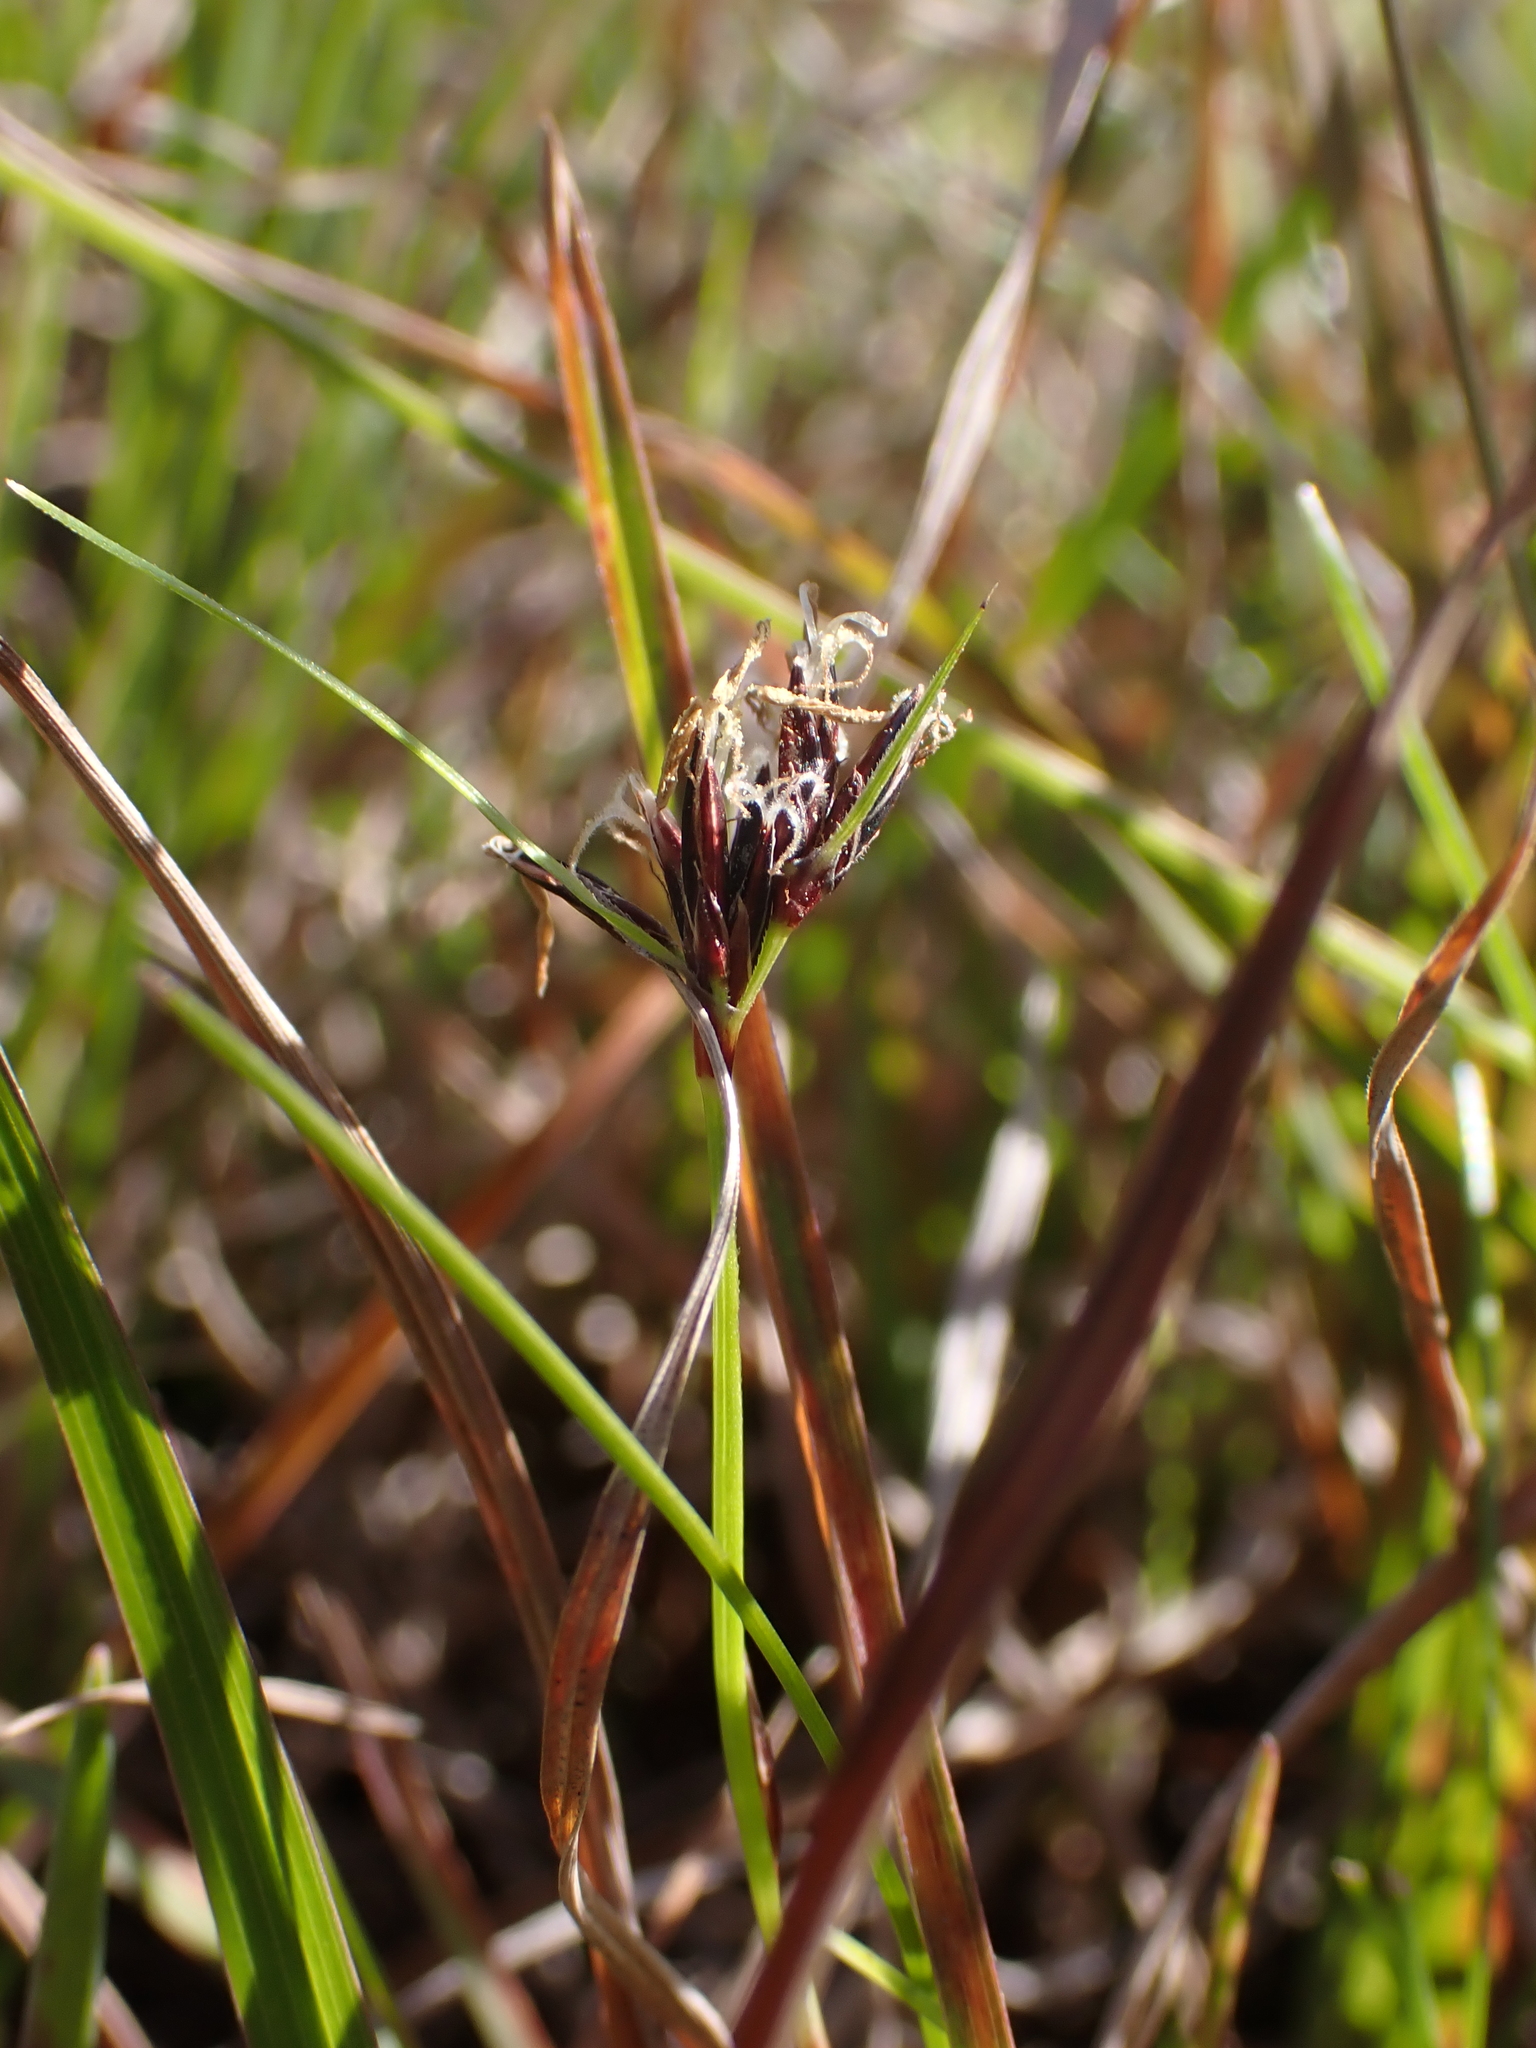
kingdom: Plantae
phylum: Tracheophyta
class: Liliopsida
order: Poales
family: Cyperaceae
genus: Schoenus
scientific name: Schoenus apogon
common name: Smooth bogrush
